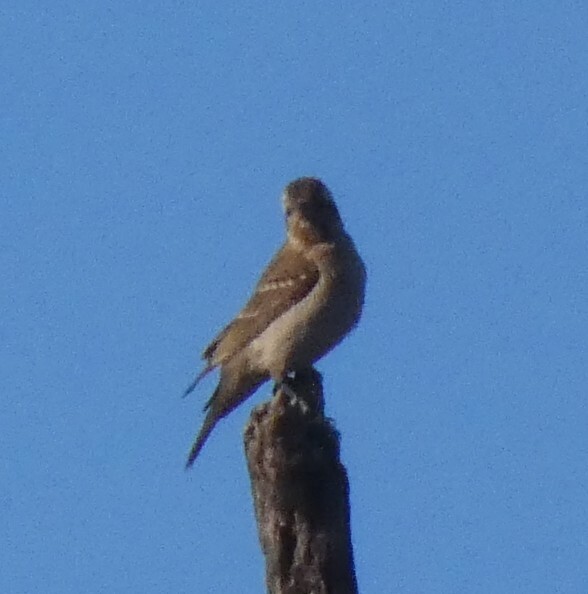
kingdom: Animalia
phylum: Chordata
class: Aves
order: Passeriformes
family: Passeridae
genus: Gymnoris
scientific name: Gymnoris superciliaris
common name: Yellow-throated petronia
